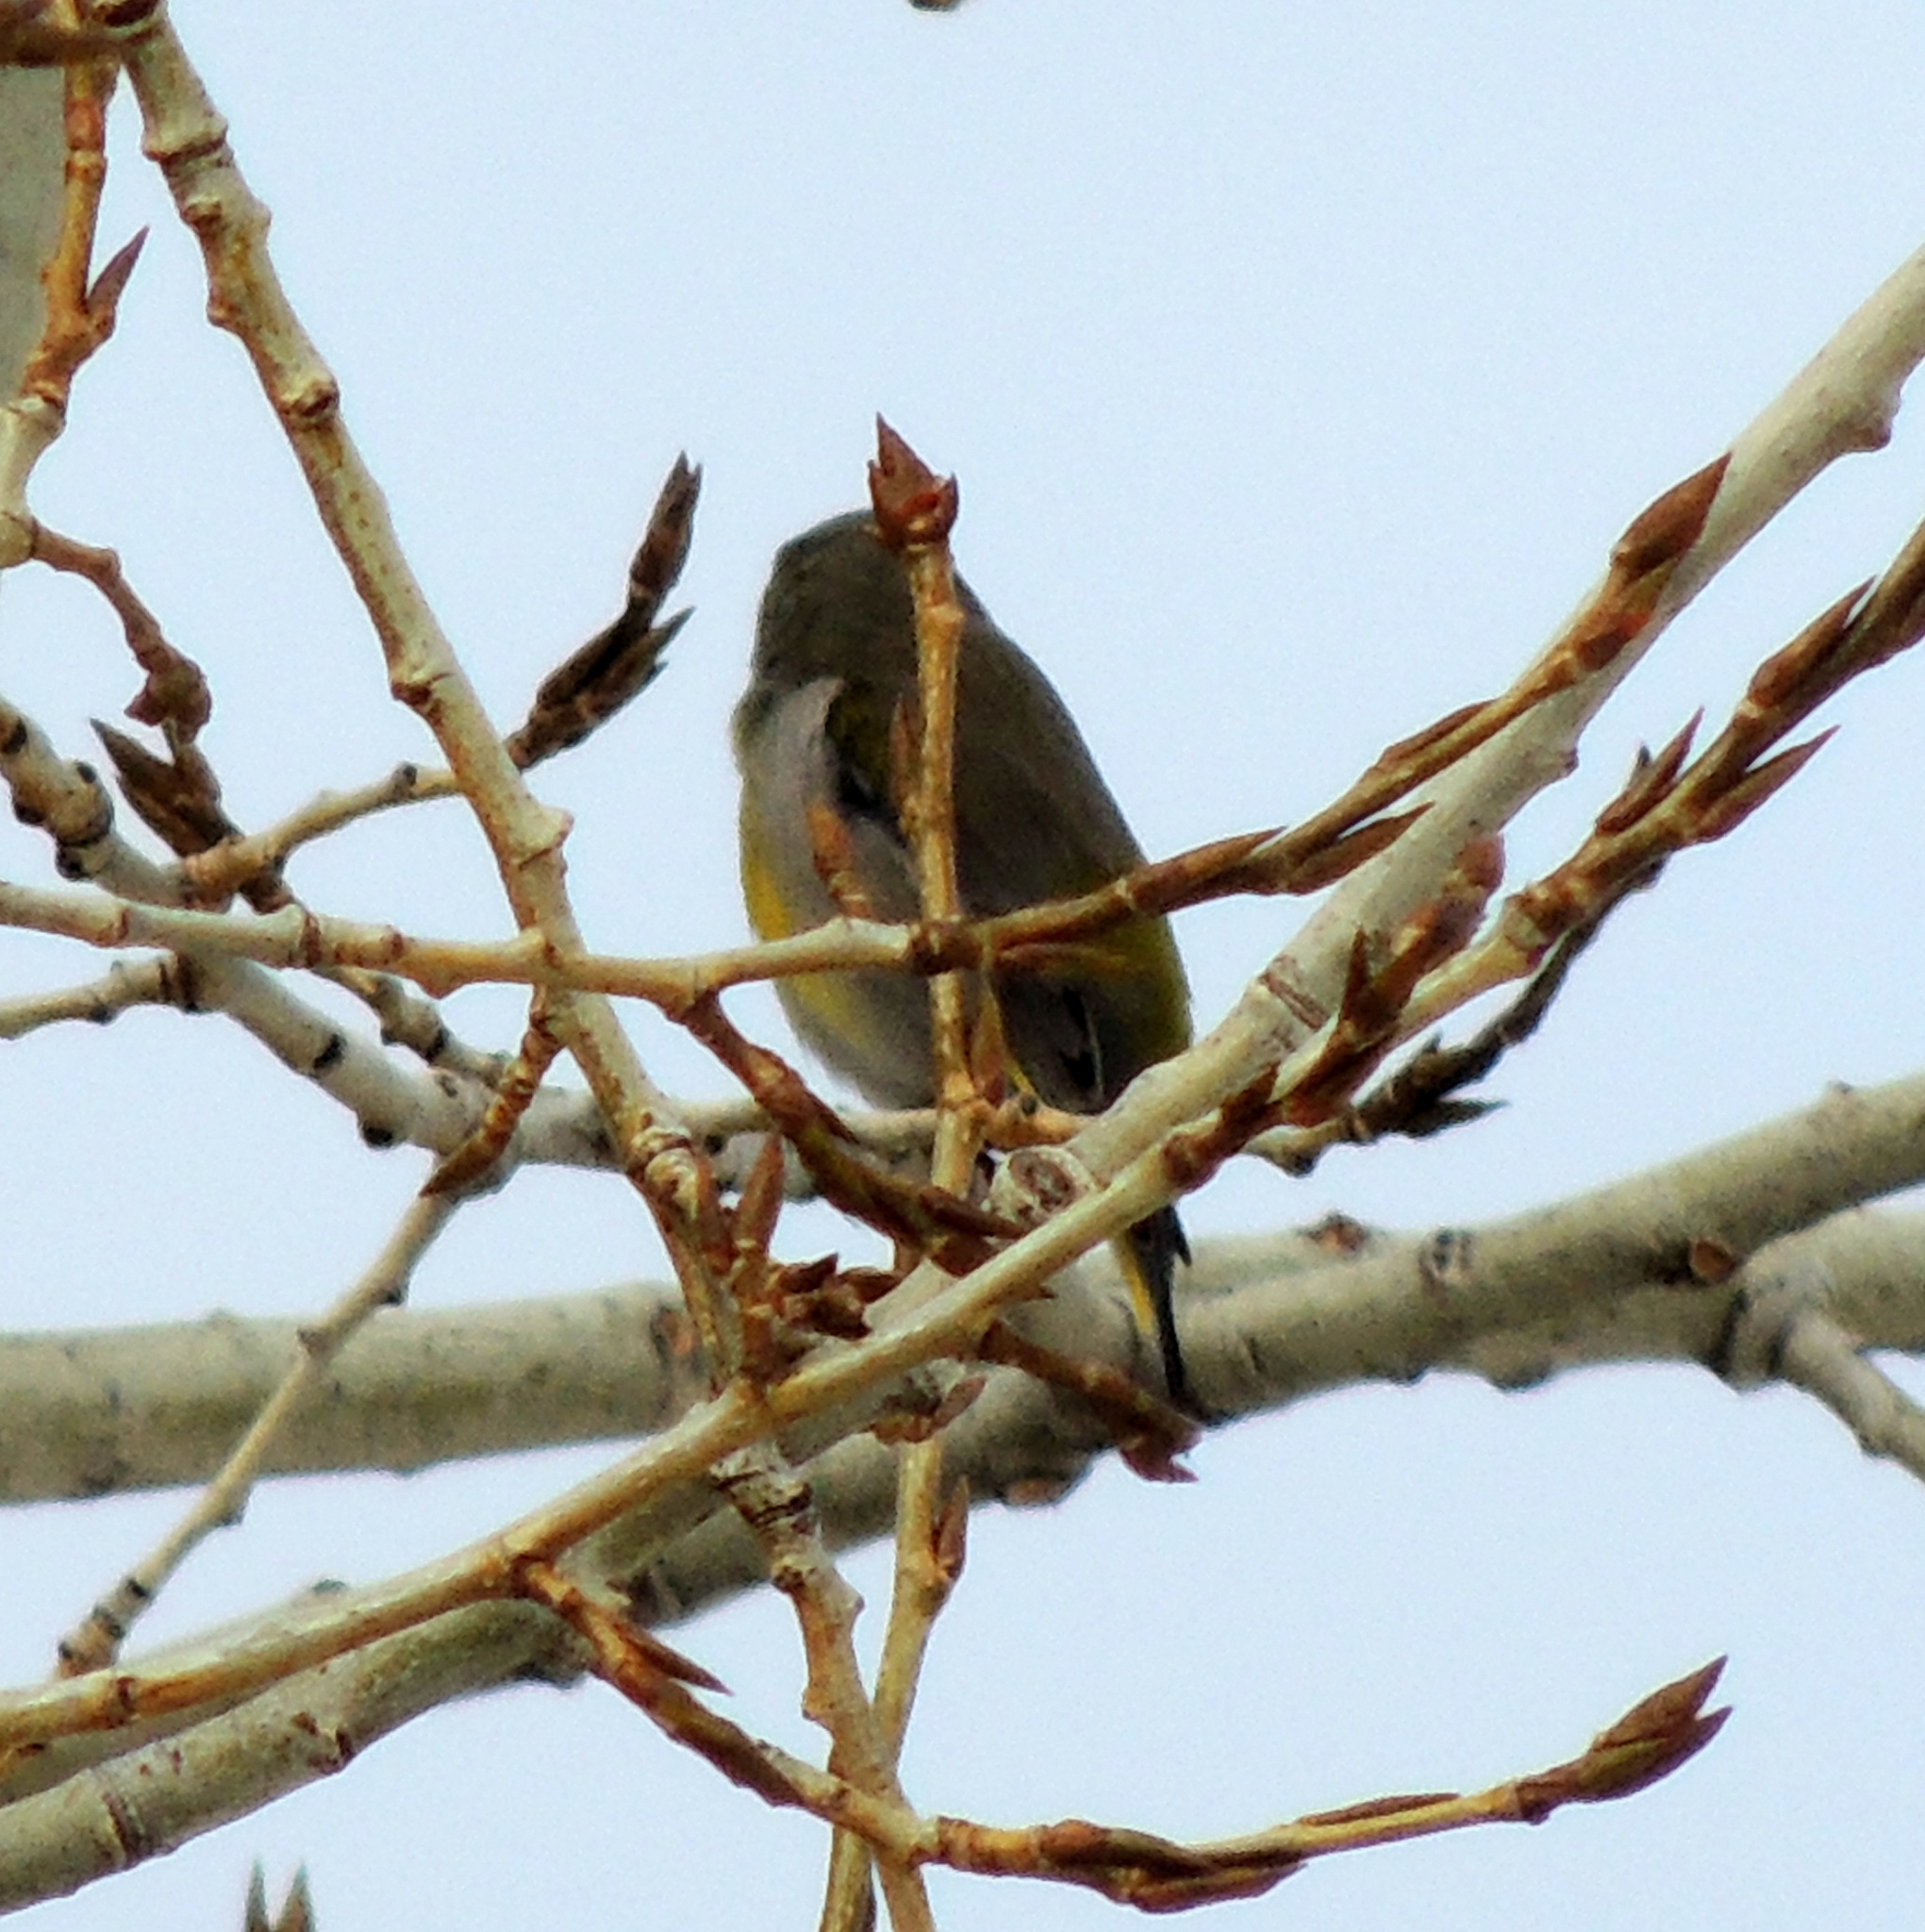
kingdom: Plantae
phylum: Tracheophyta
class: Liliopsida
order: Poales
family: Poaceae
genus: Chloris
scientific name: Chloris chloris
